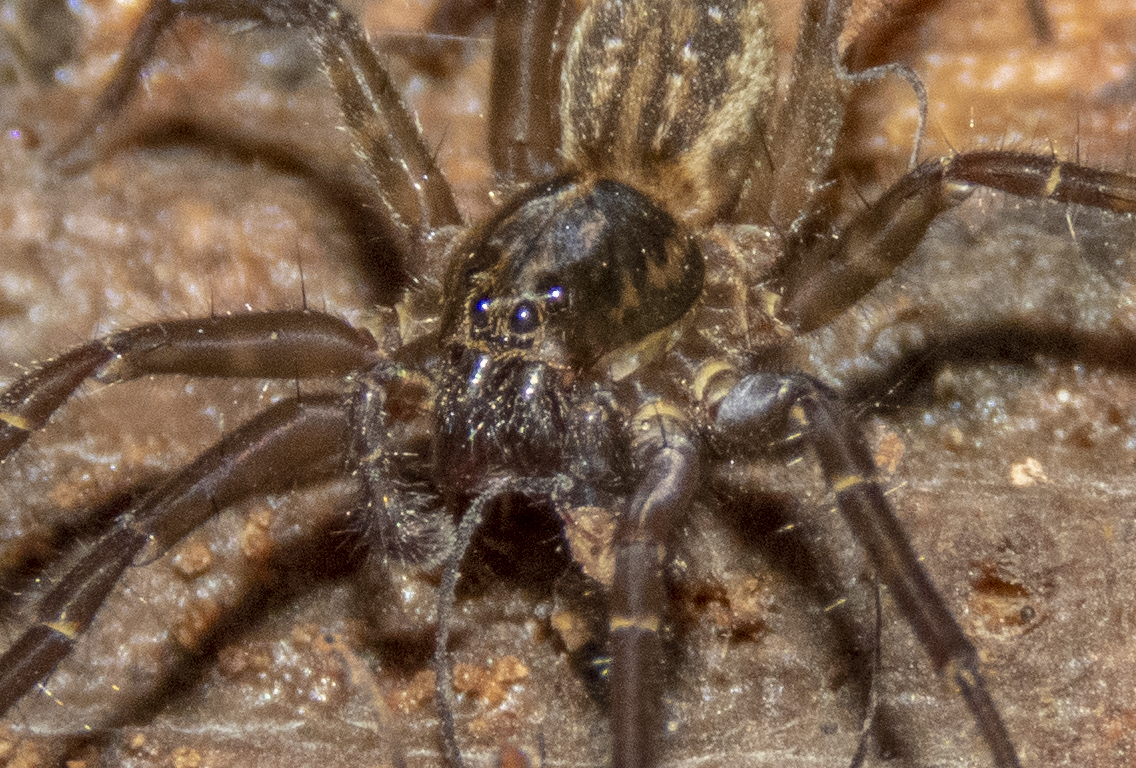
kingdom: Animalia
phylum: Arthropoda
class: Arachnida
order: Araneae
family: Lycosidae
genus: Allotrochosina
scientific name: Allotrochosina schauinslandi
